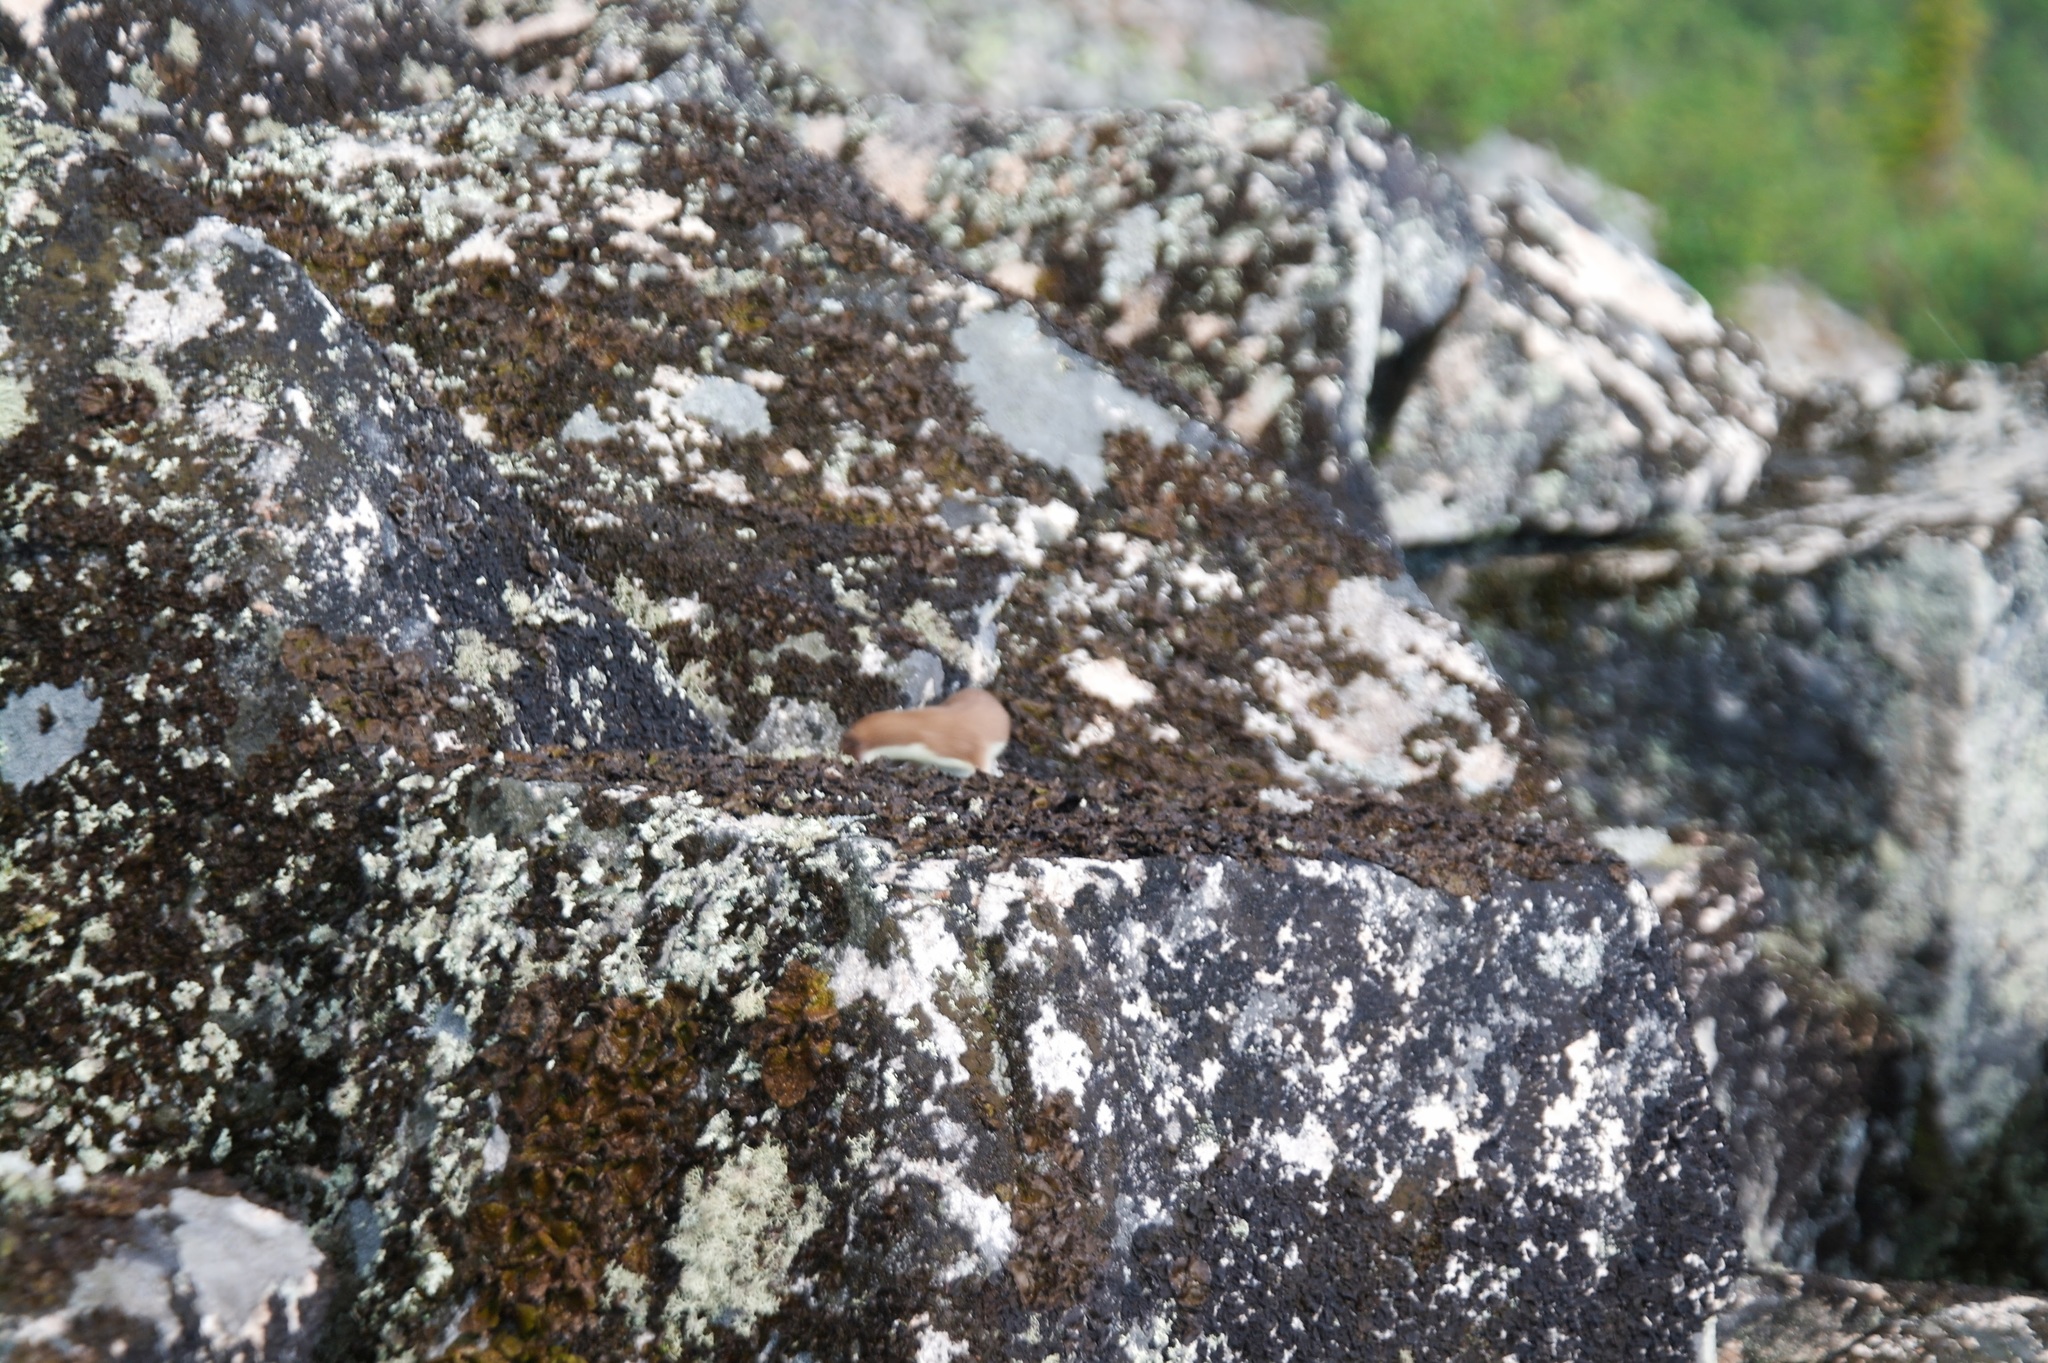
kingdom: Animalia
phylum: Chordata
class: Mammalia
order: Carnivora
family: Mustelidae
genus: Mustela
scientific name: Mustela
